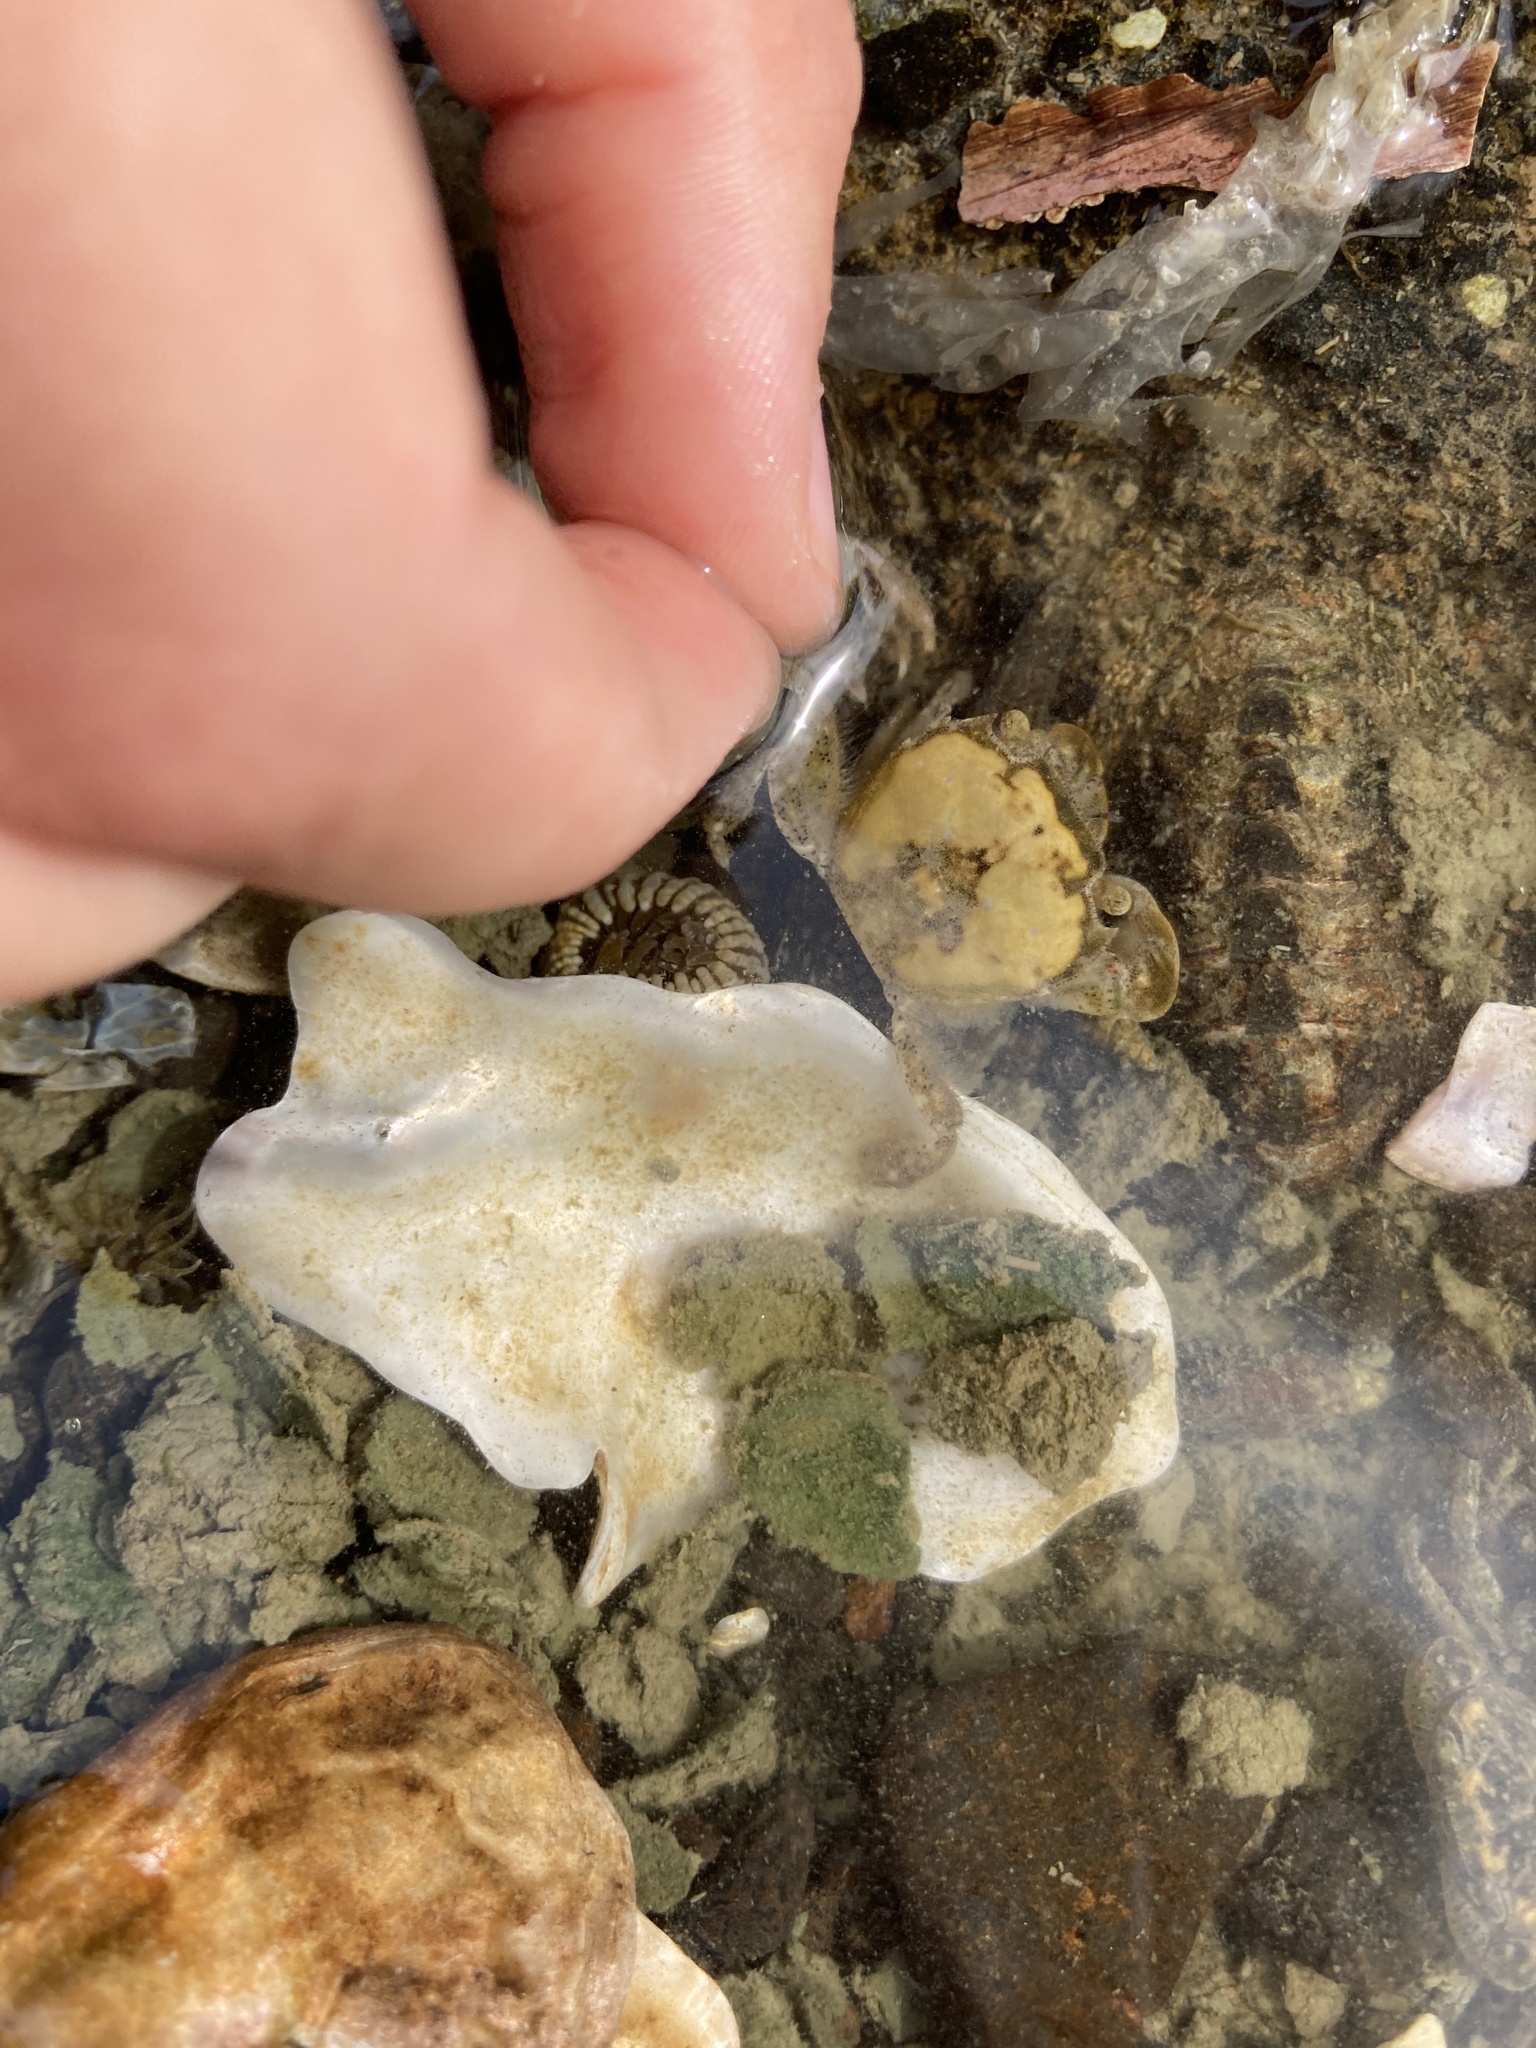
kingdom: Animalia
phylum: Arthropoda
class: Malacostraca
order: Decapoda
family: Varunidae
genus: Hemigrapsus
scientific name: Hemigrapsus crenulatus
